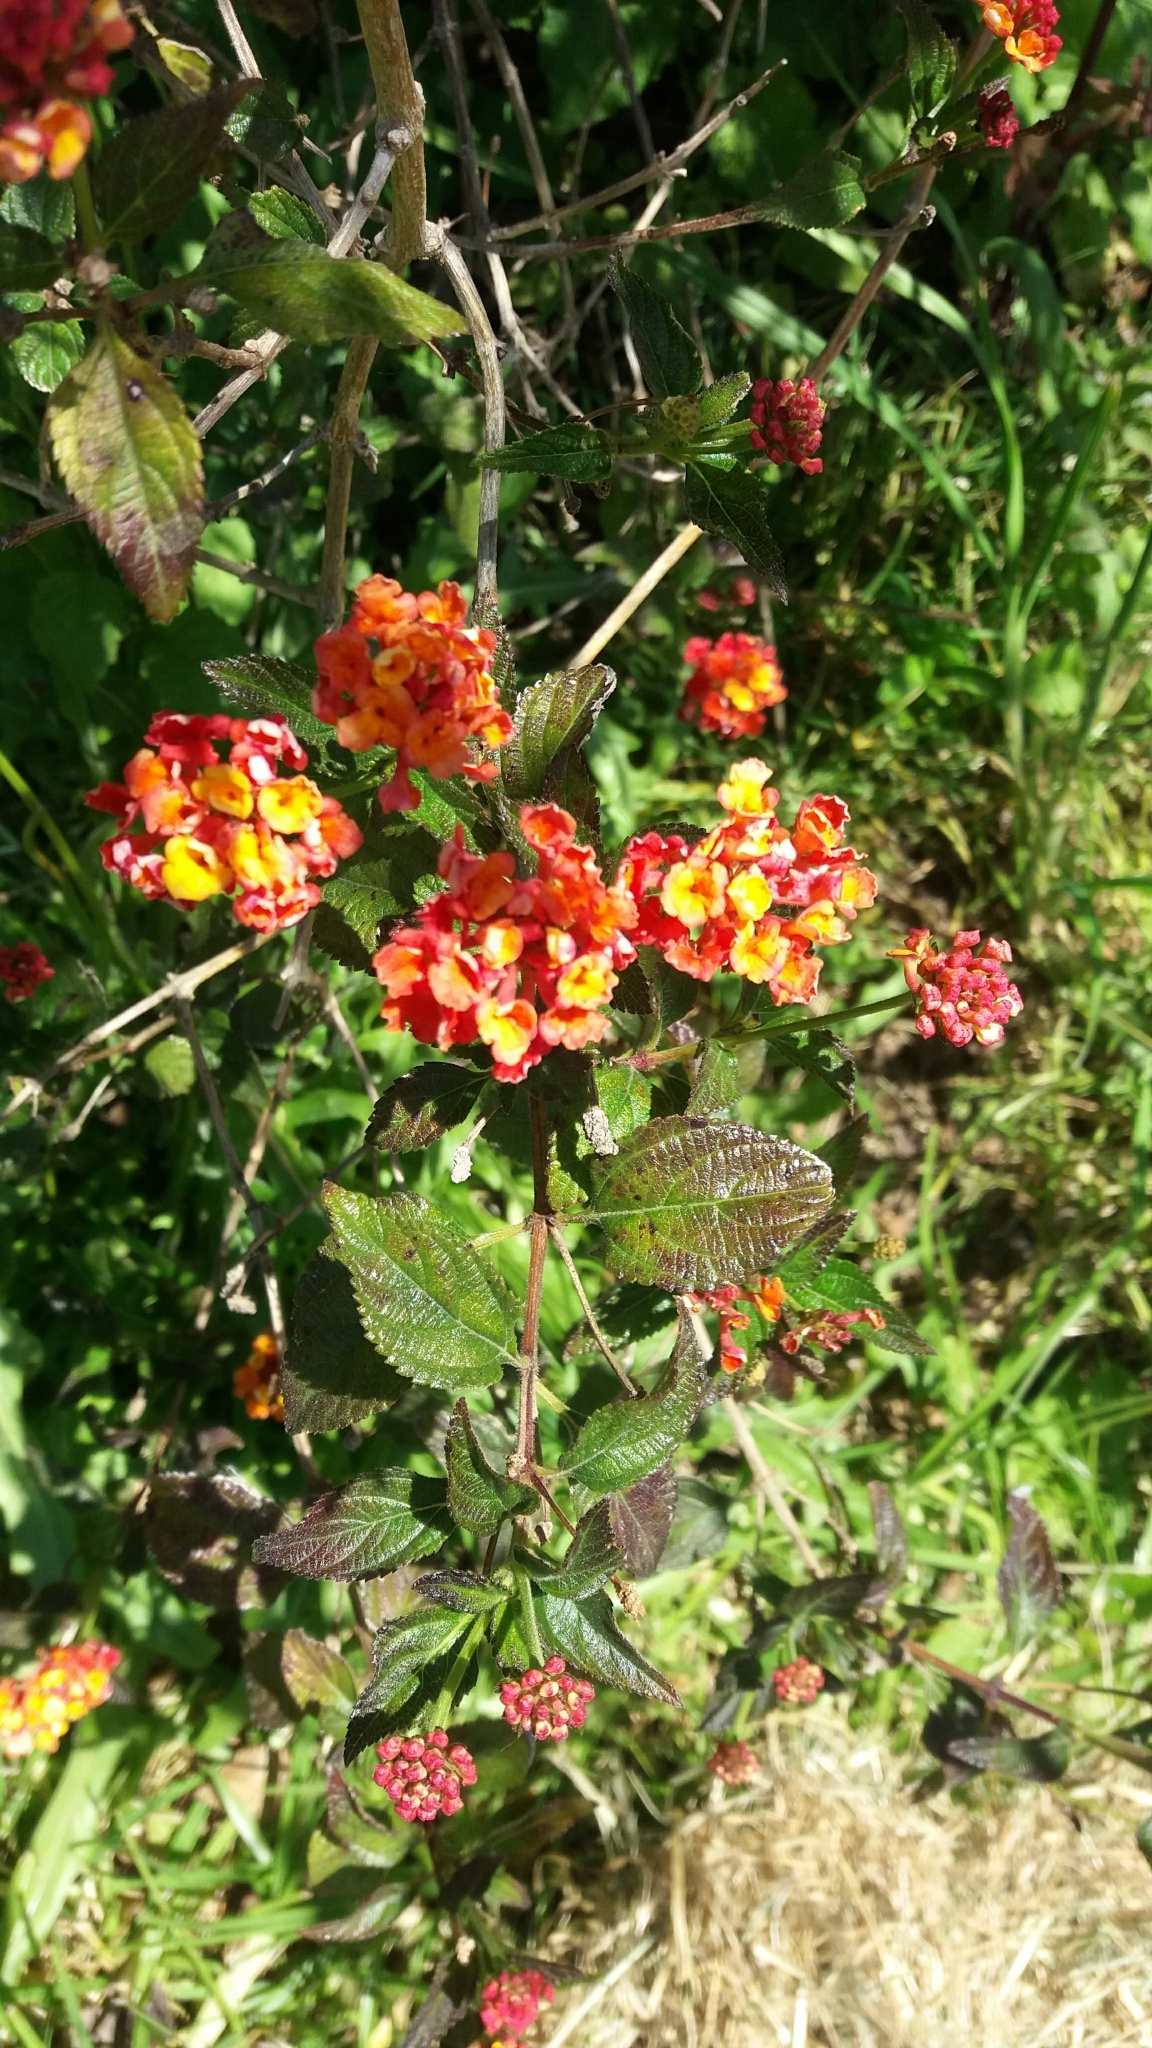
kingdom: Plantae
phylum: Tracheophyta
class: Magnoliopsida
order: Lamiales
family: Verbenaceae
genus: Lantana
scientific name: Lantana camara
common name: Lantana
